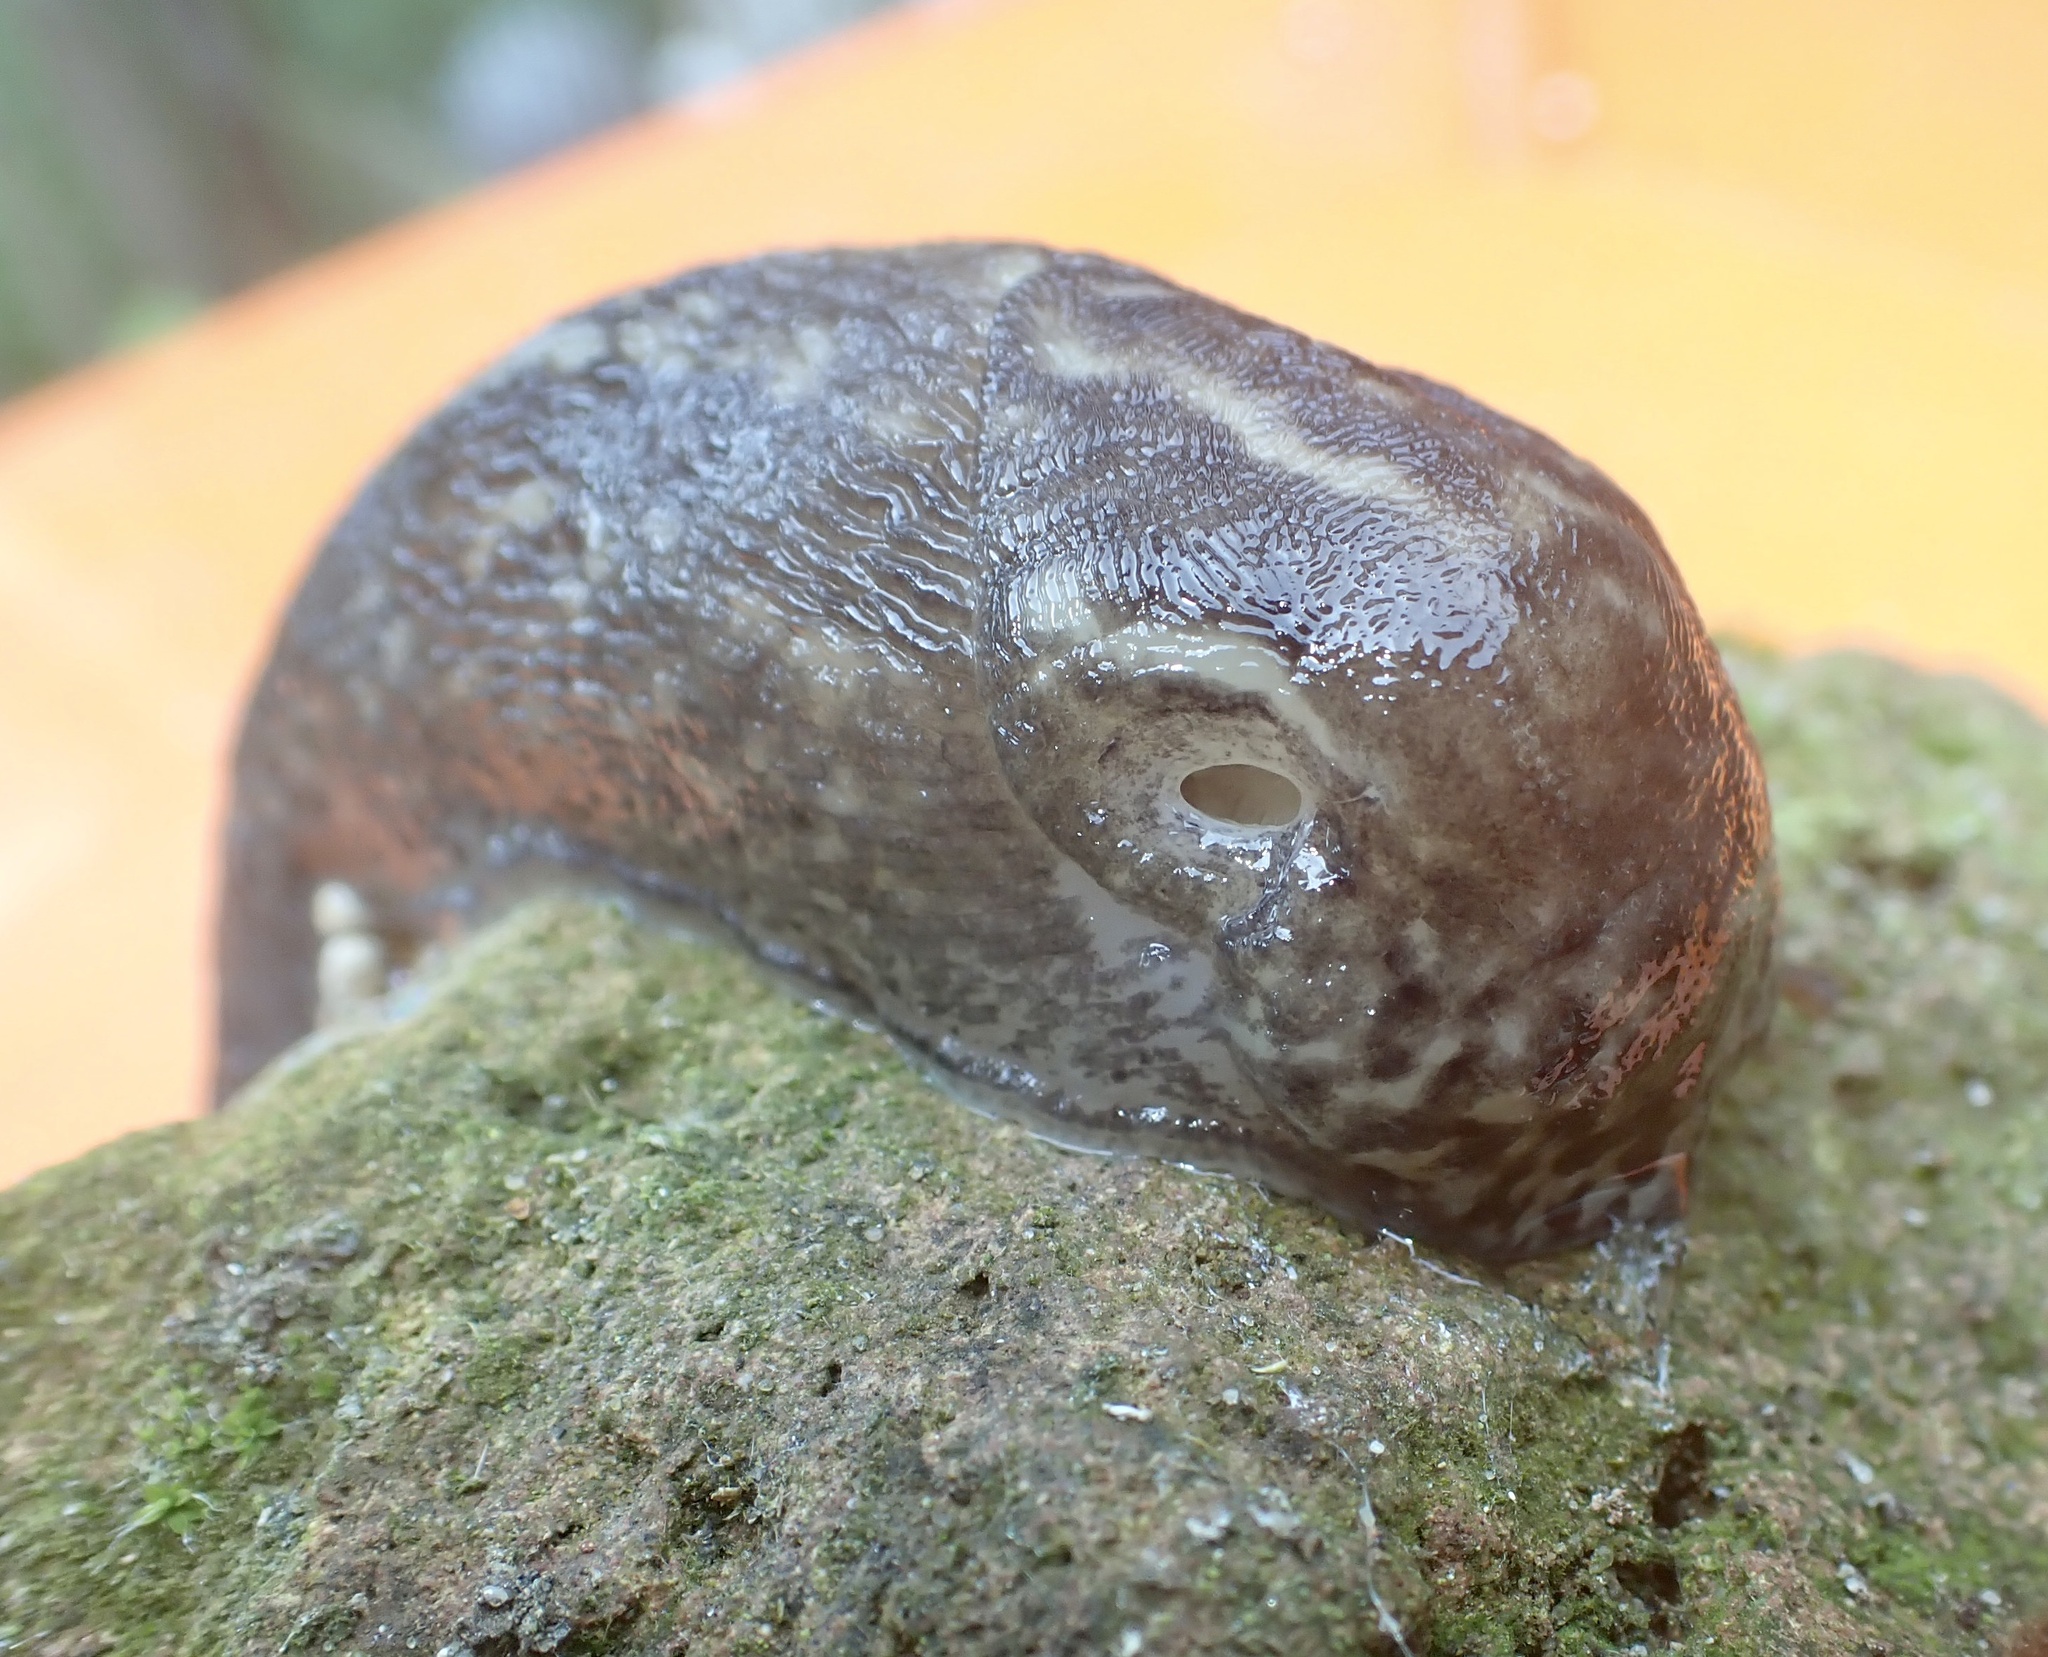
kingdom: Animalia
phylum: Mollusca
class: Gastropoda
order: Stylommatophora
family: Limacidae
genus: Limax
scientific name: Limax maximus
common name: Great grey slug
